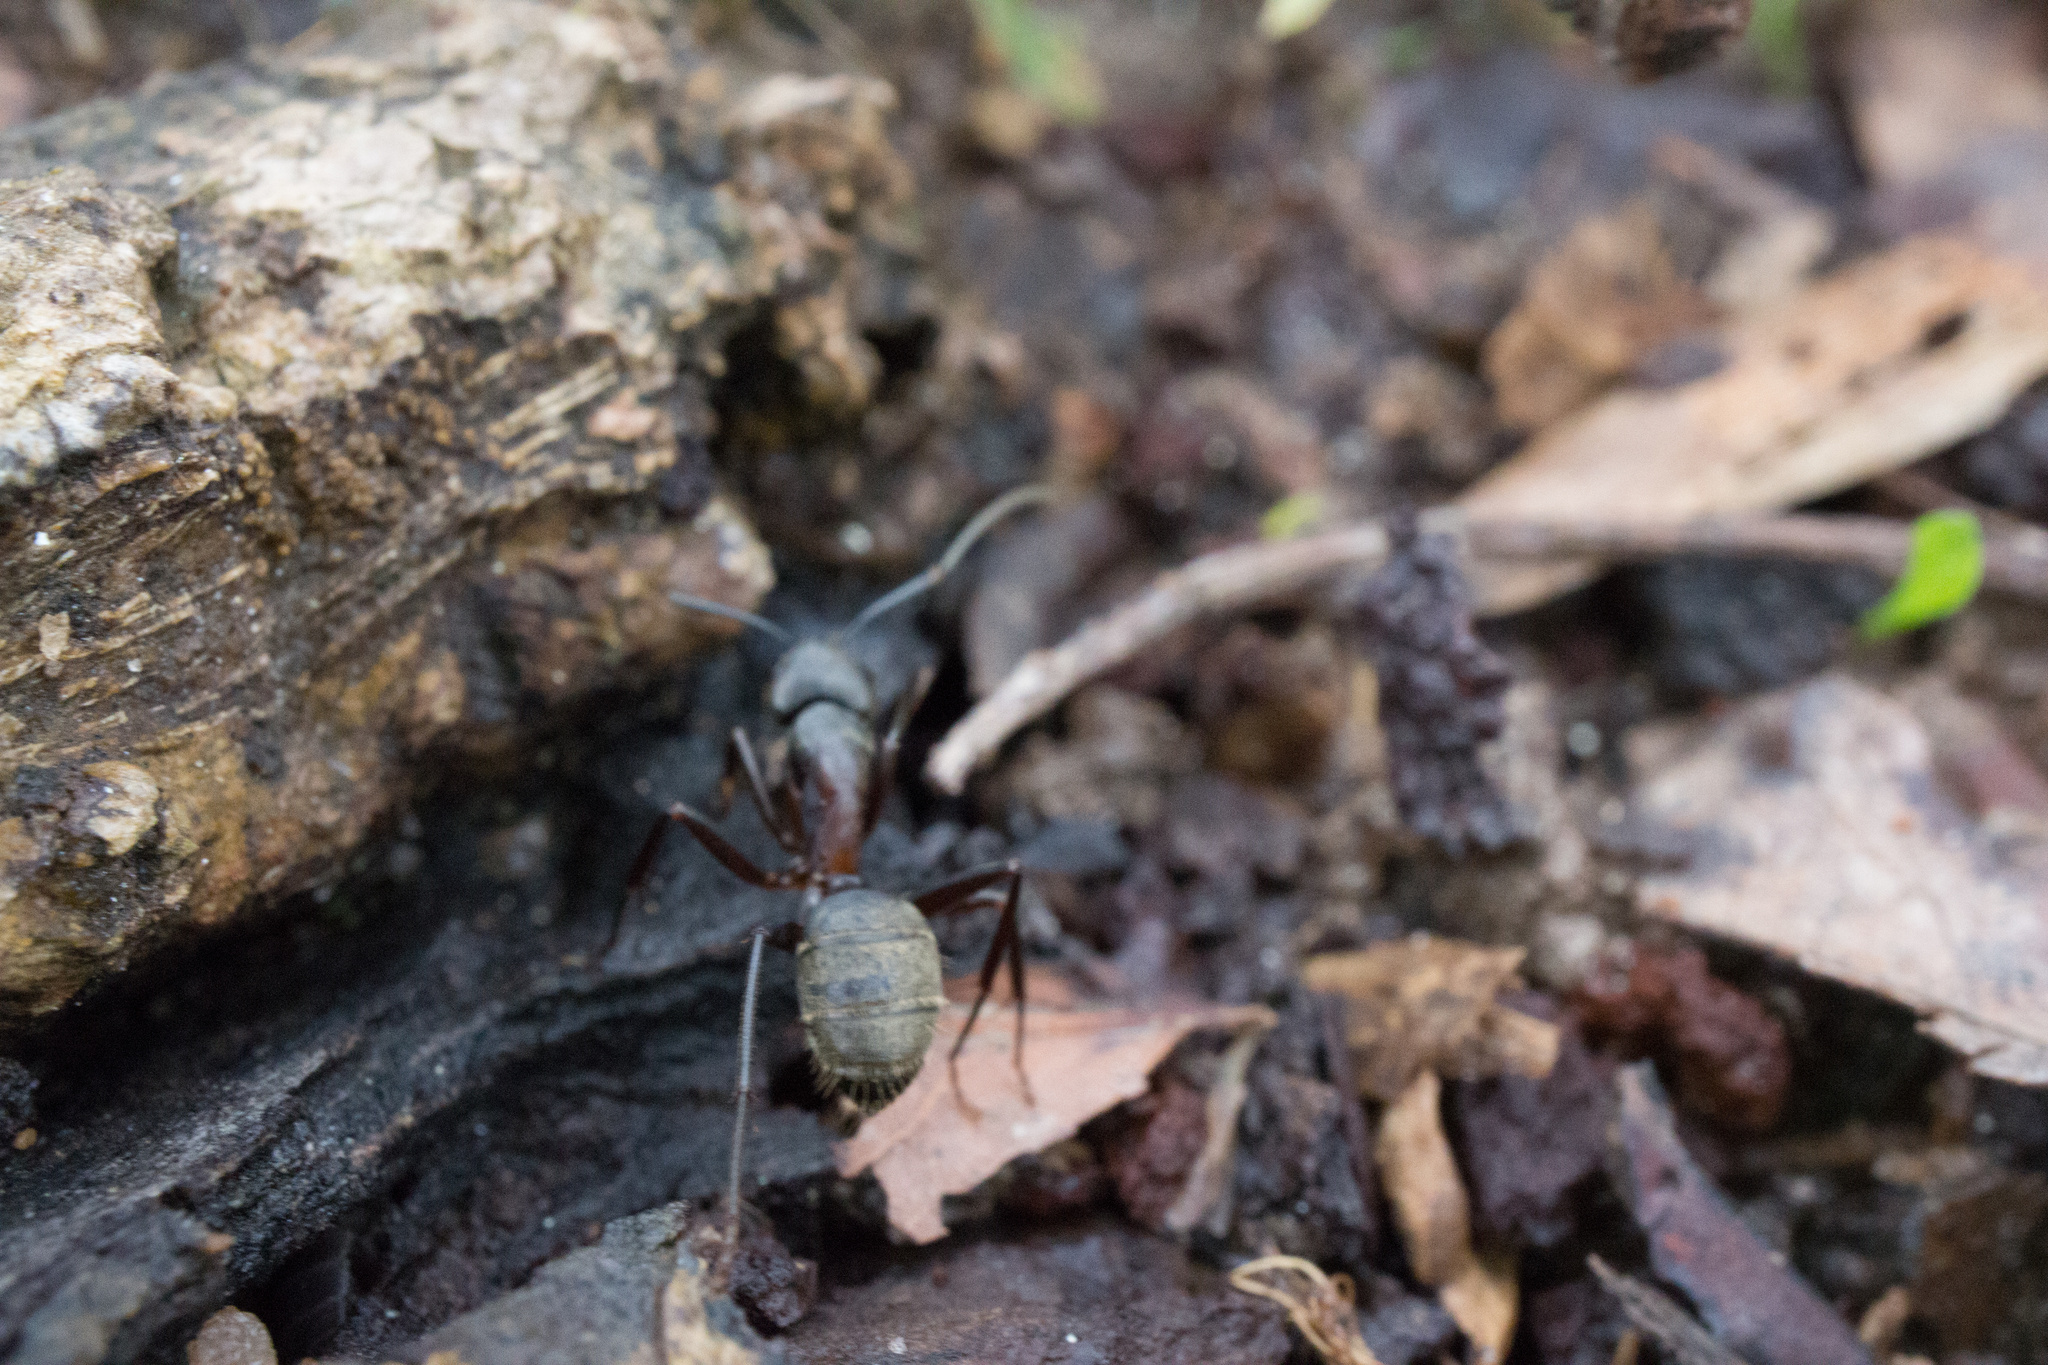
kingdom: Animalia
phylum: Arthropoda
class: Insecta
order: Hymenoptera
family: Formicidae
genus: Camponotus
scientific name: Camponotus chromaiodes
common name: Red carpenter ant
